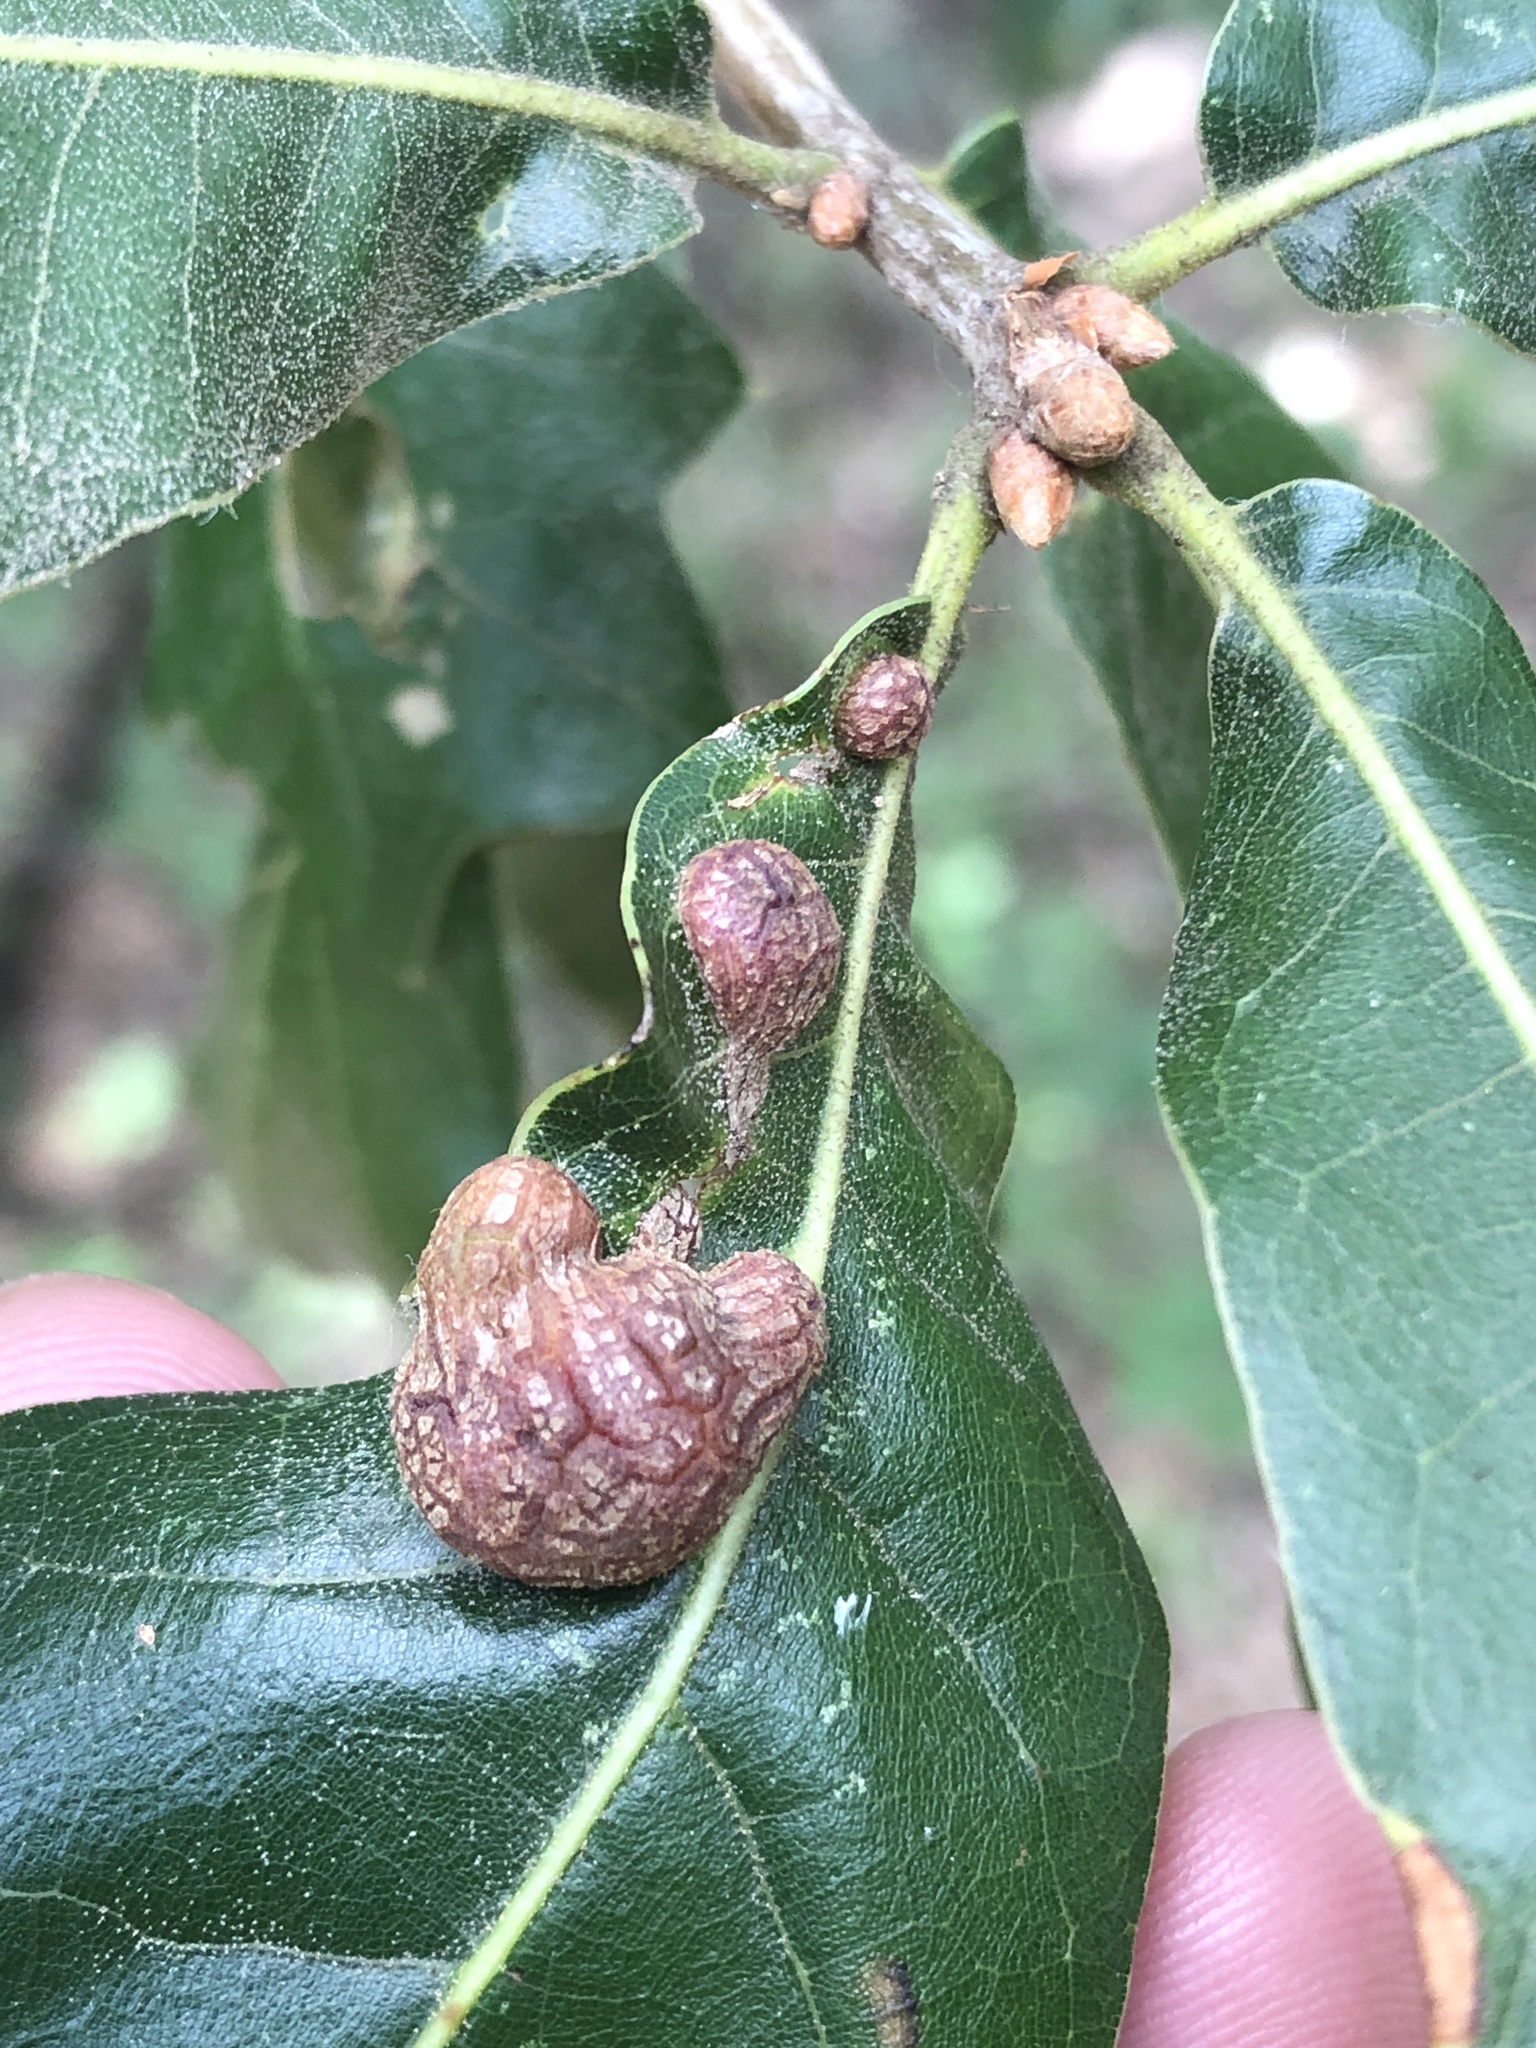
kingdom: Animalia
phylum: Arthropoda
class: Insecta
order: Diptera
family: Cecidomyiidae
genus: Polystepha
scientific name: Polystepha pilulae
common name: Oak leaf gall midge
